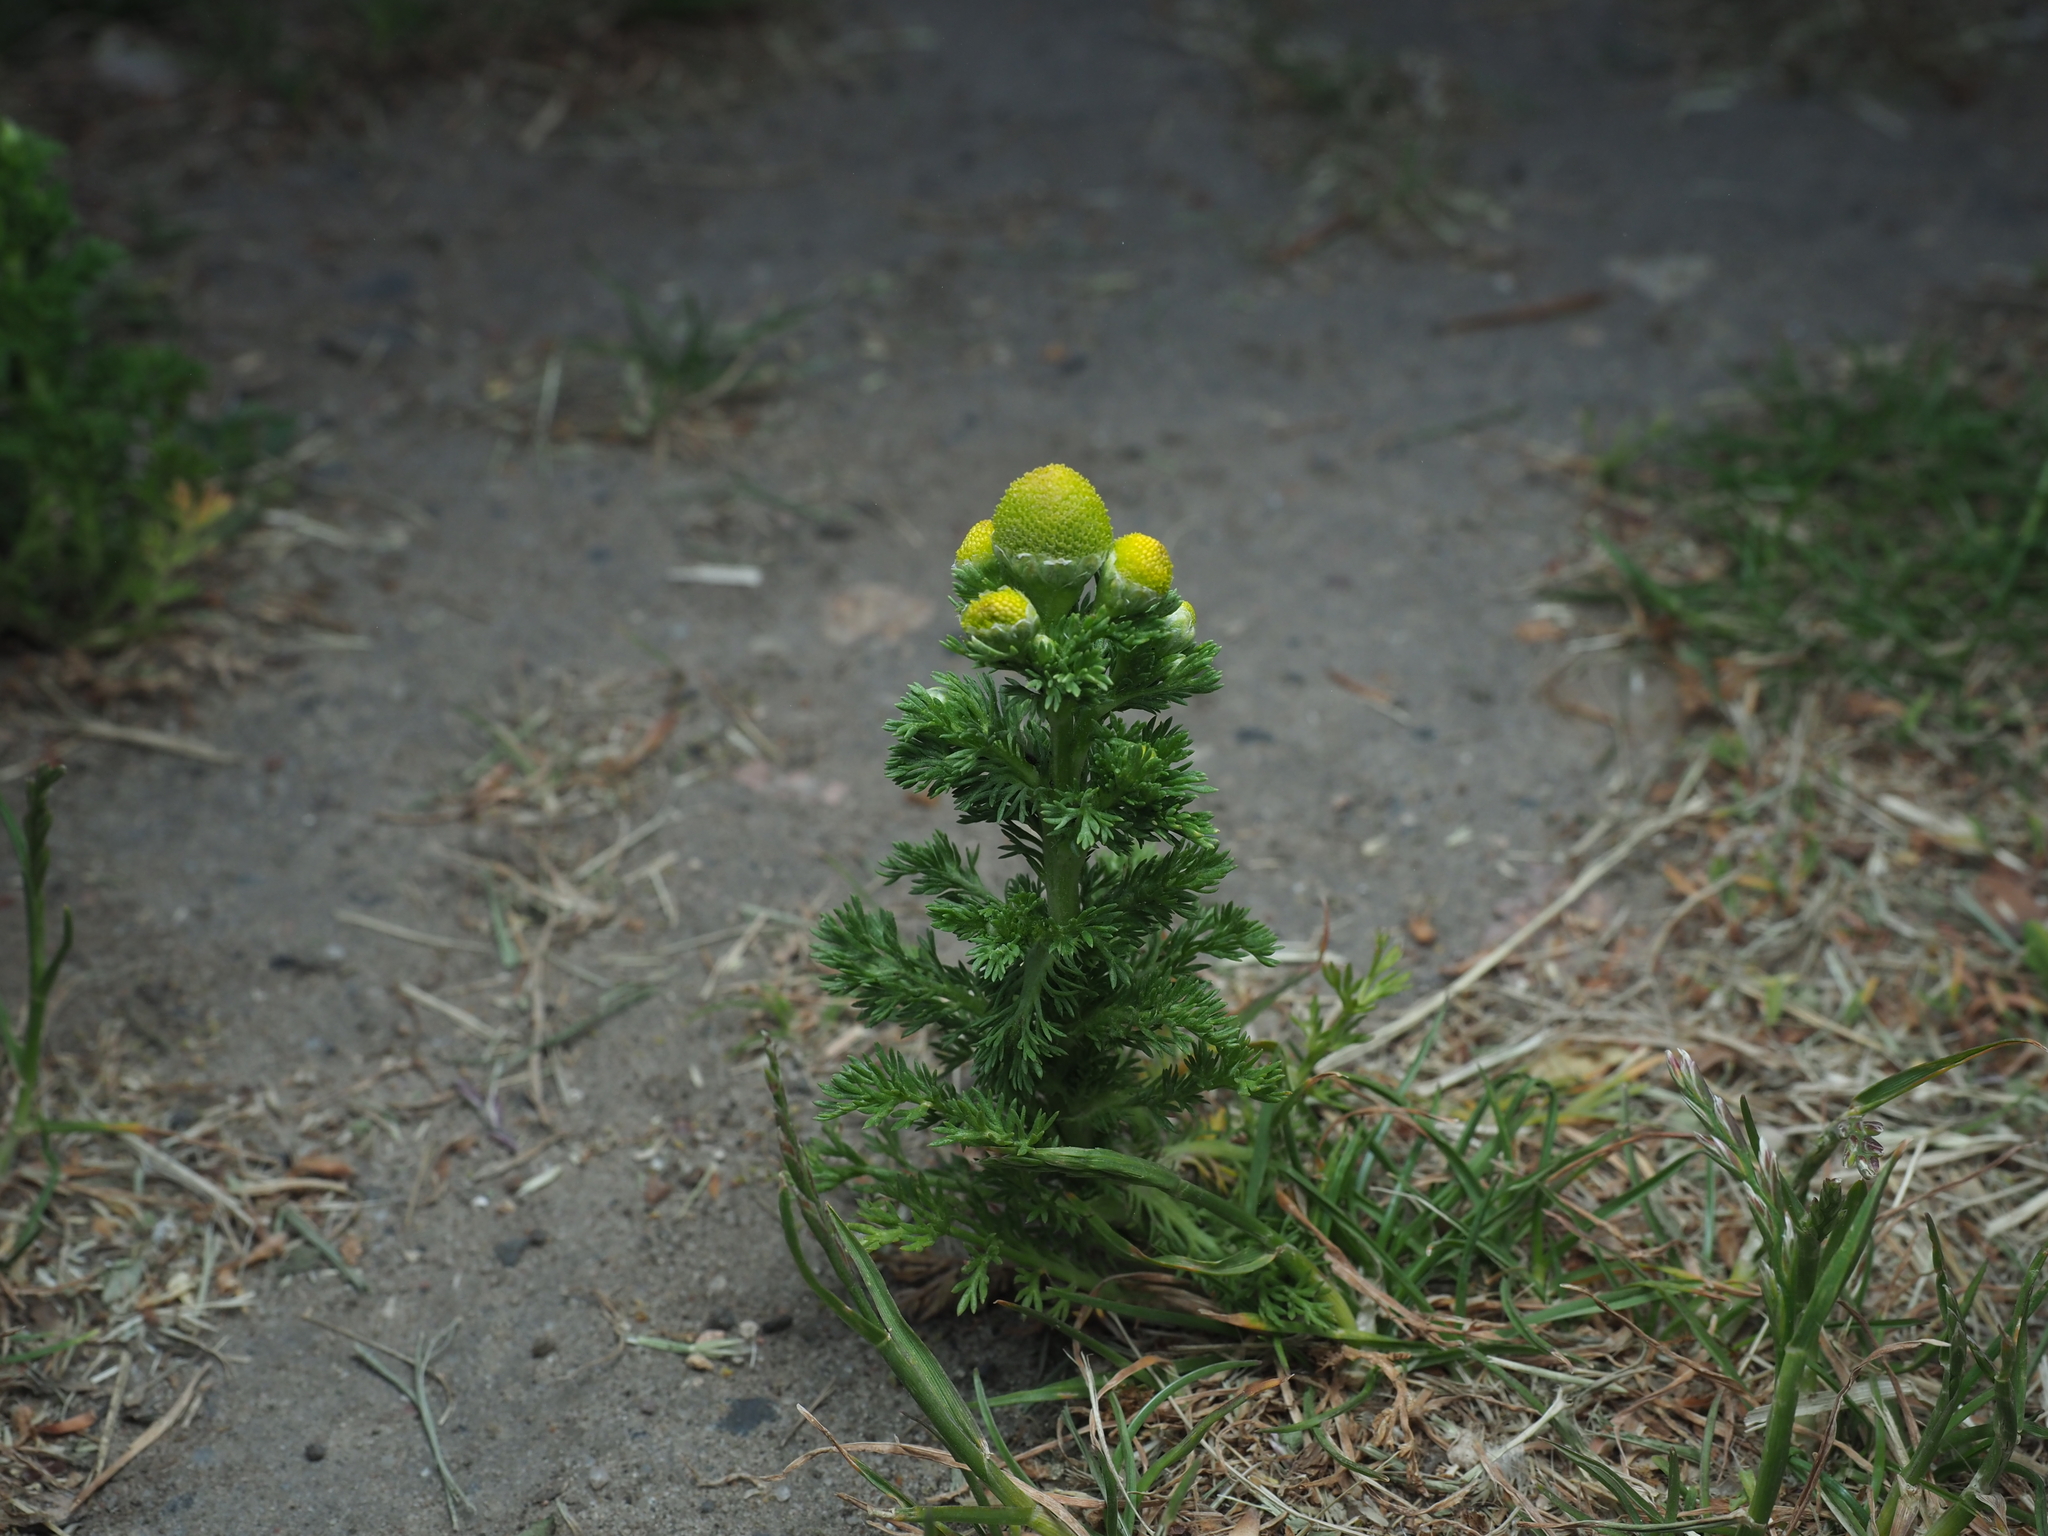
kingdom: Plantae
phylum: Tracheophyta
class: Magnoliopsida
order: Asterales
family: Asteraceae
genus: Matricaria
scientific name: Matricaria discoidea
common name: Disc mayweed
